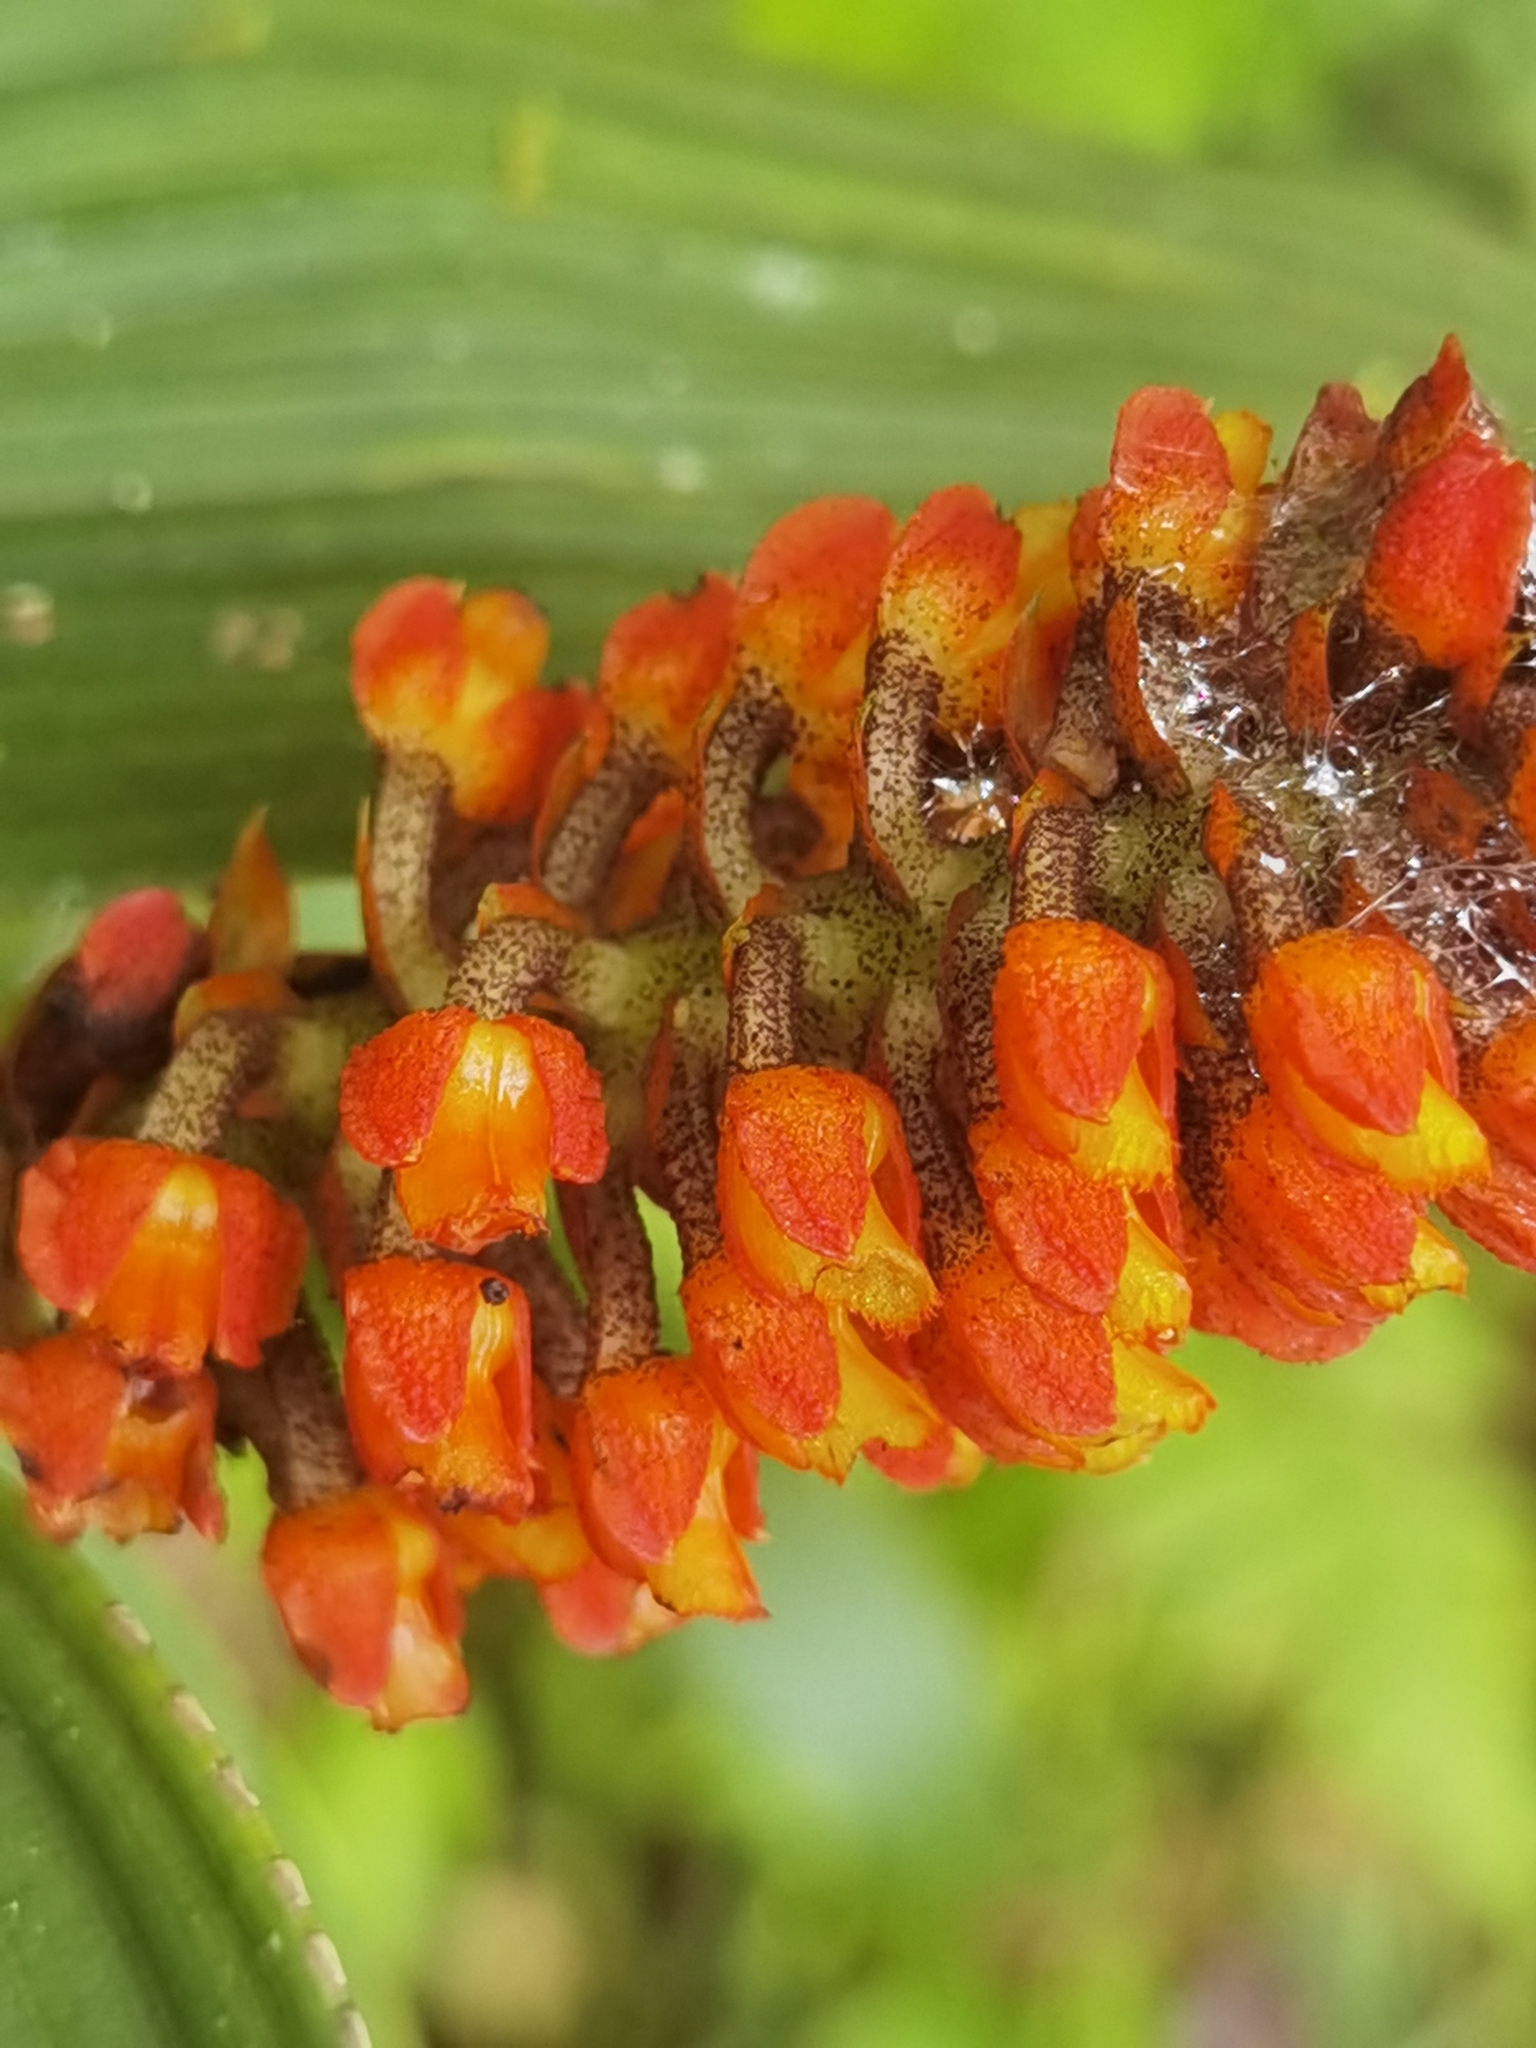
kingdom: Plantae
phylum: Tracheophyta
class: Liliopsida
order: Asparagales
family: Orchidaceae
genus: Elleanthus
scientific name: Elleanthus hymenophorus
